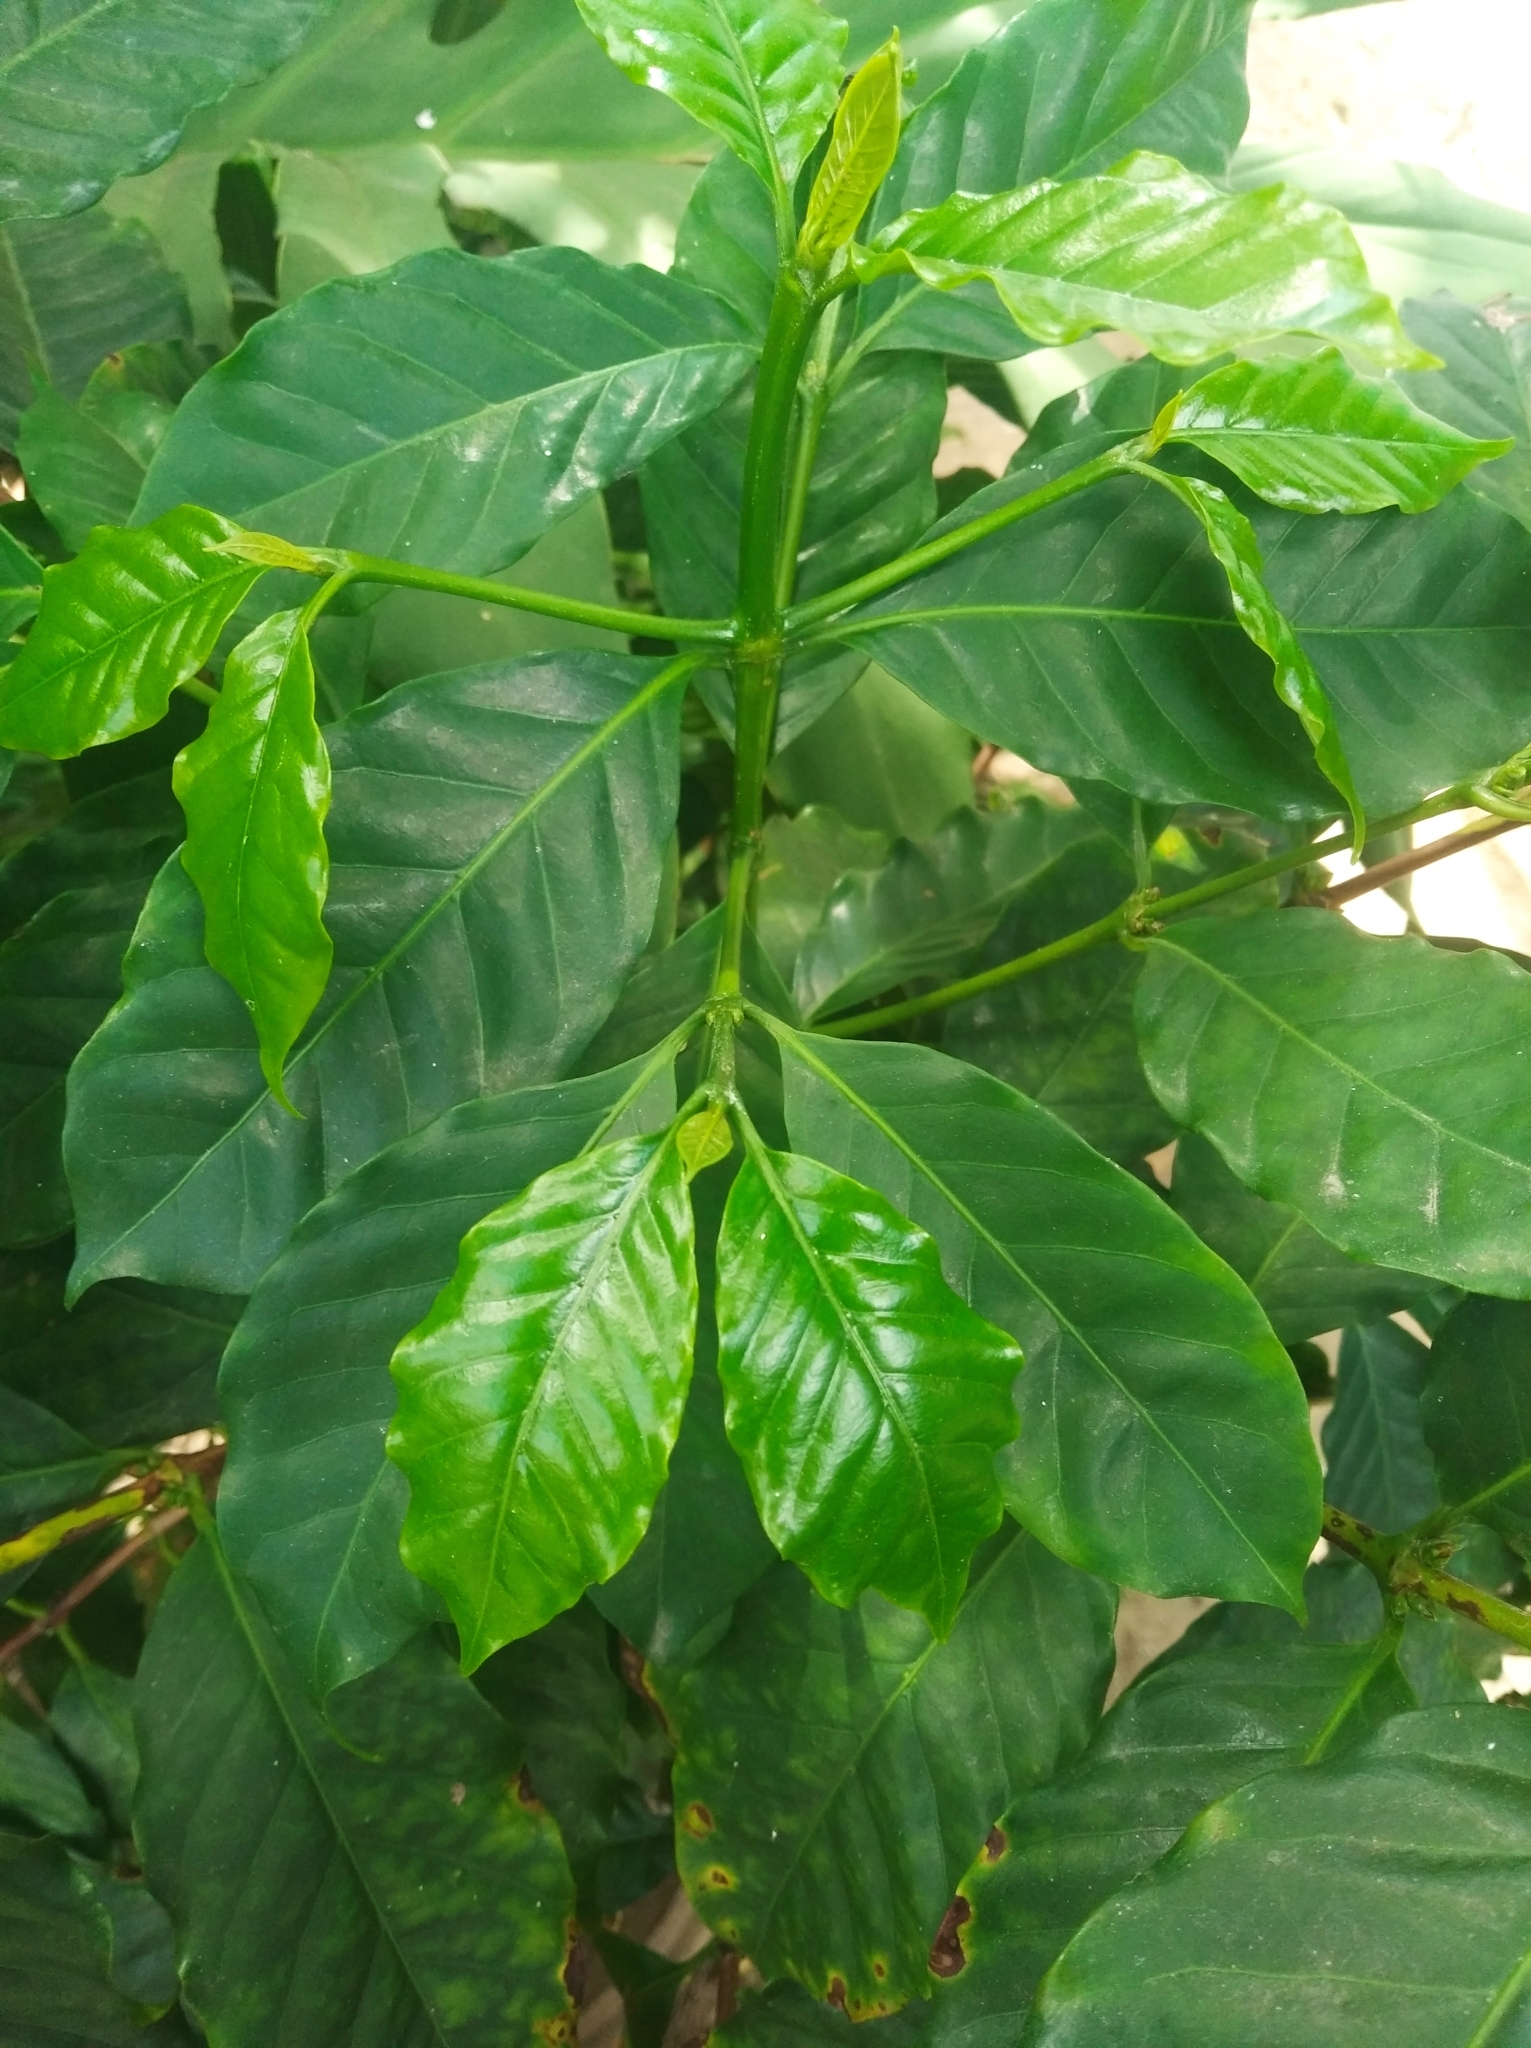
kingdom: Plantae
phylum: Tracheophyta
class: Magnoliopsida
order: Gentianales
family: Rubiaceae
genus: Coffea
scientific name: Coffea arabica
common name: Coffee
